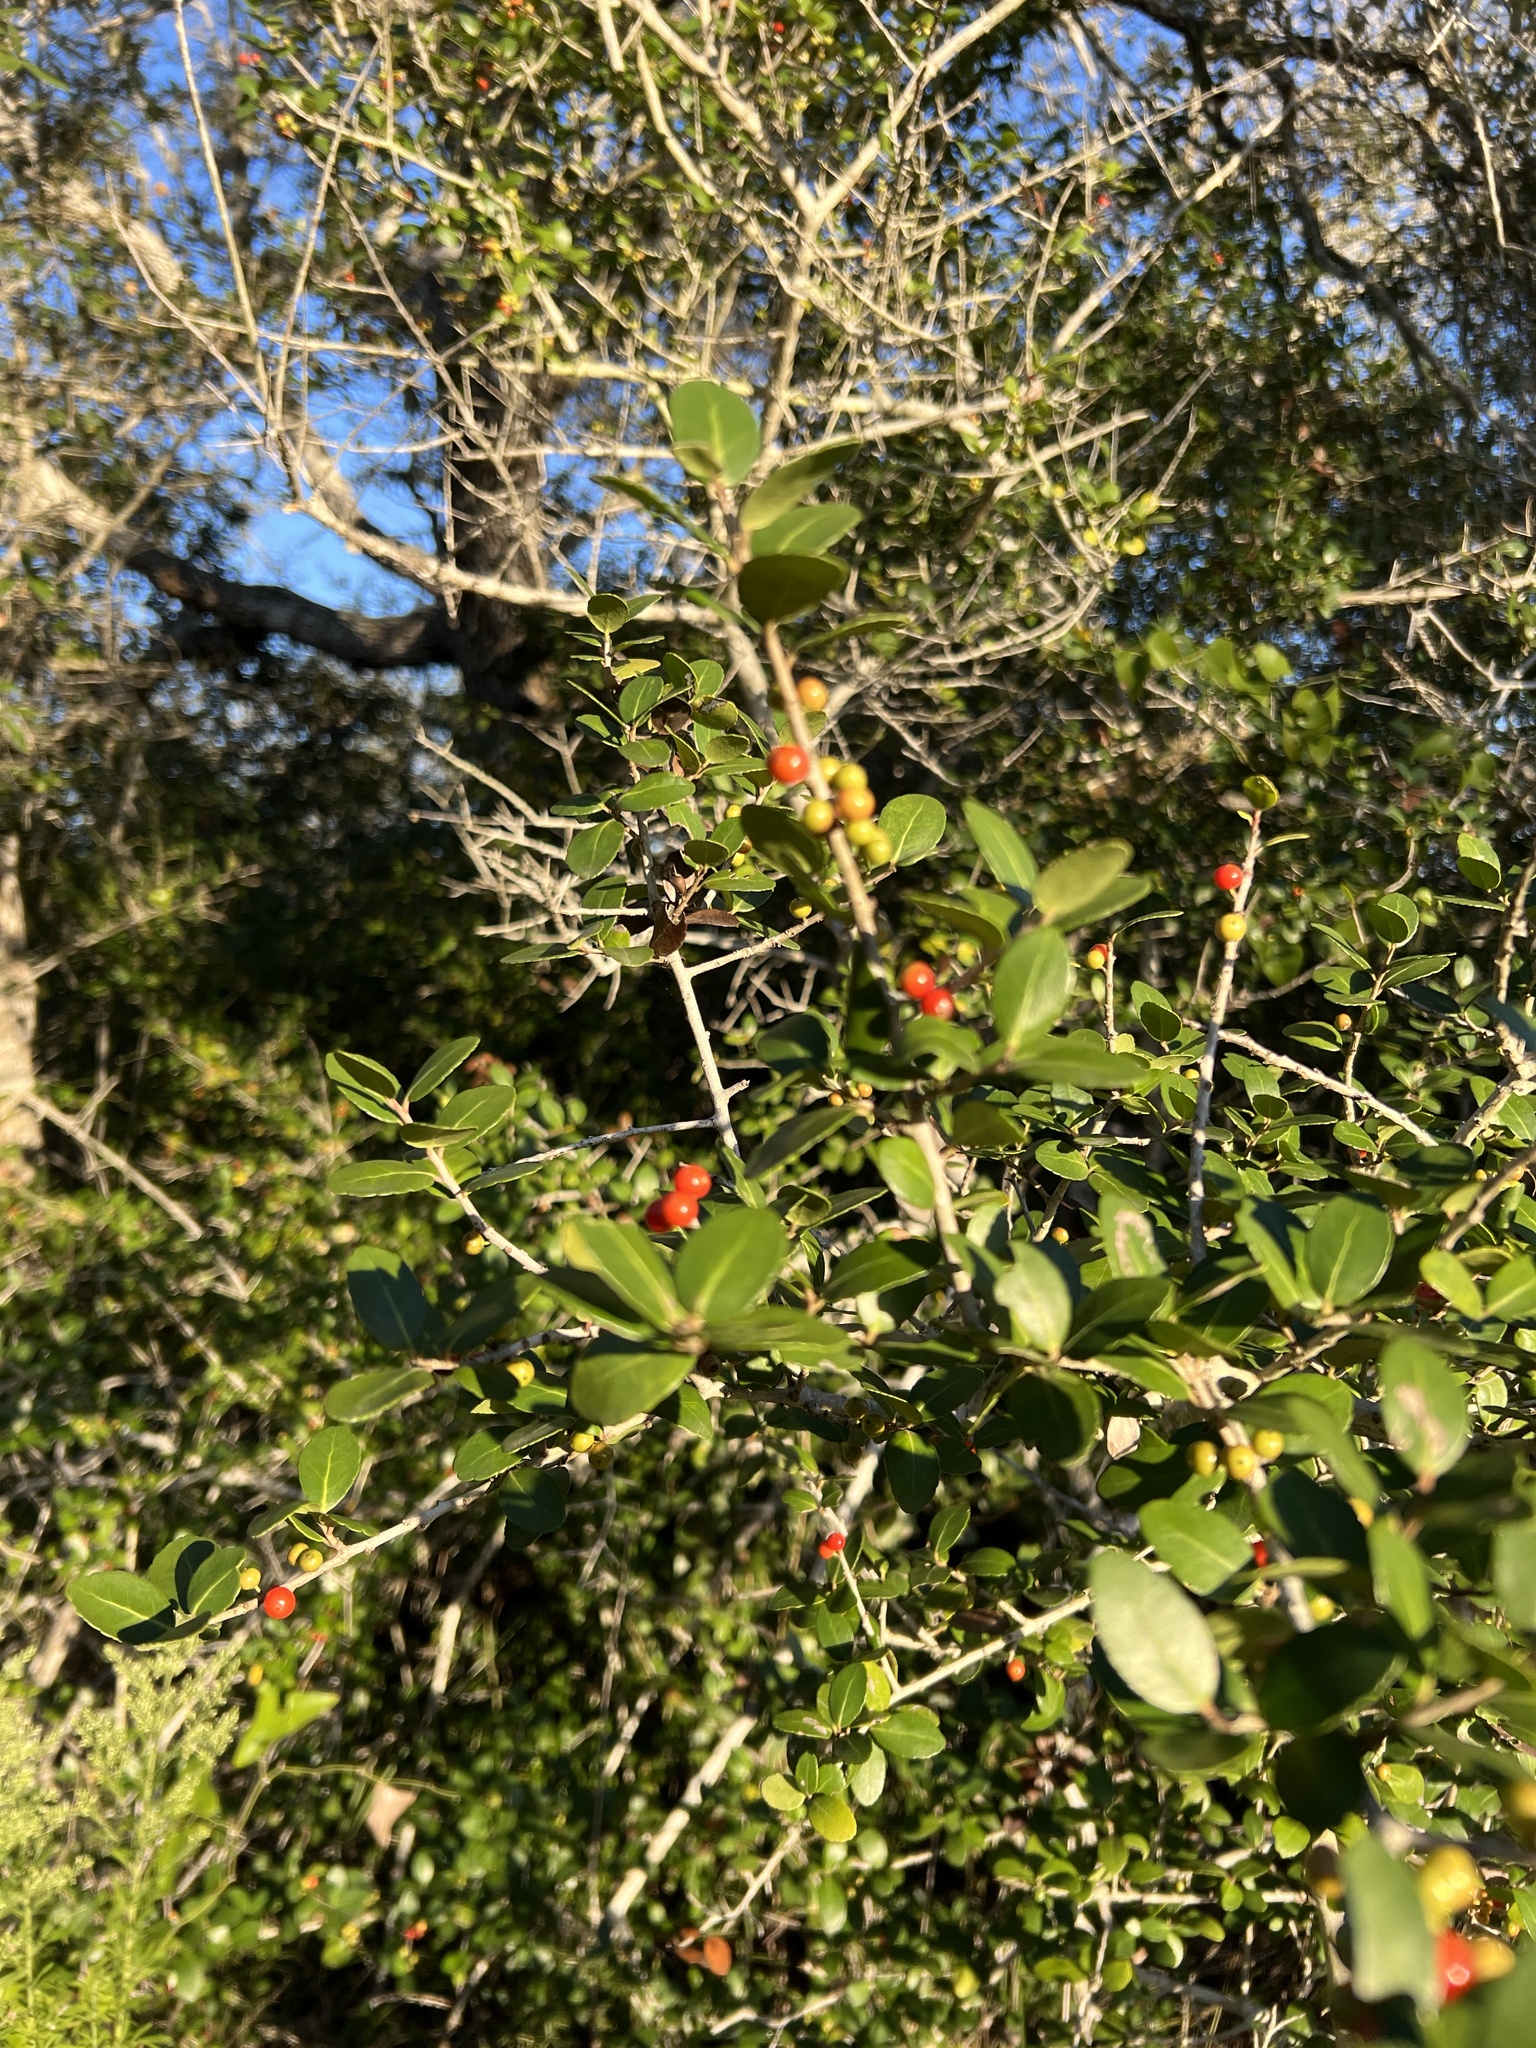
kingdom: Plantae
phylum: Tracheophyta
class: Magnoliopsida
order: Aquifoliales
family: Aquifoliaceae
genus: Ilex
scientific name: Ilex vomitoria
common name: Yaupon holly
